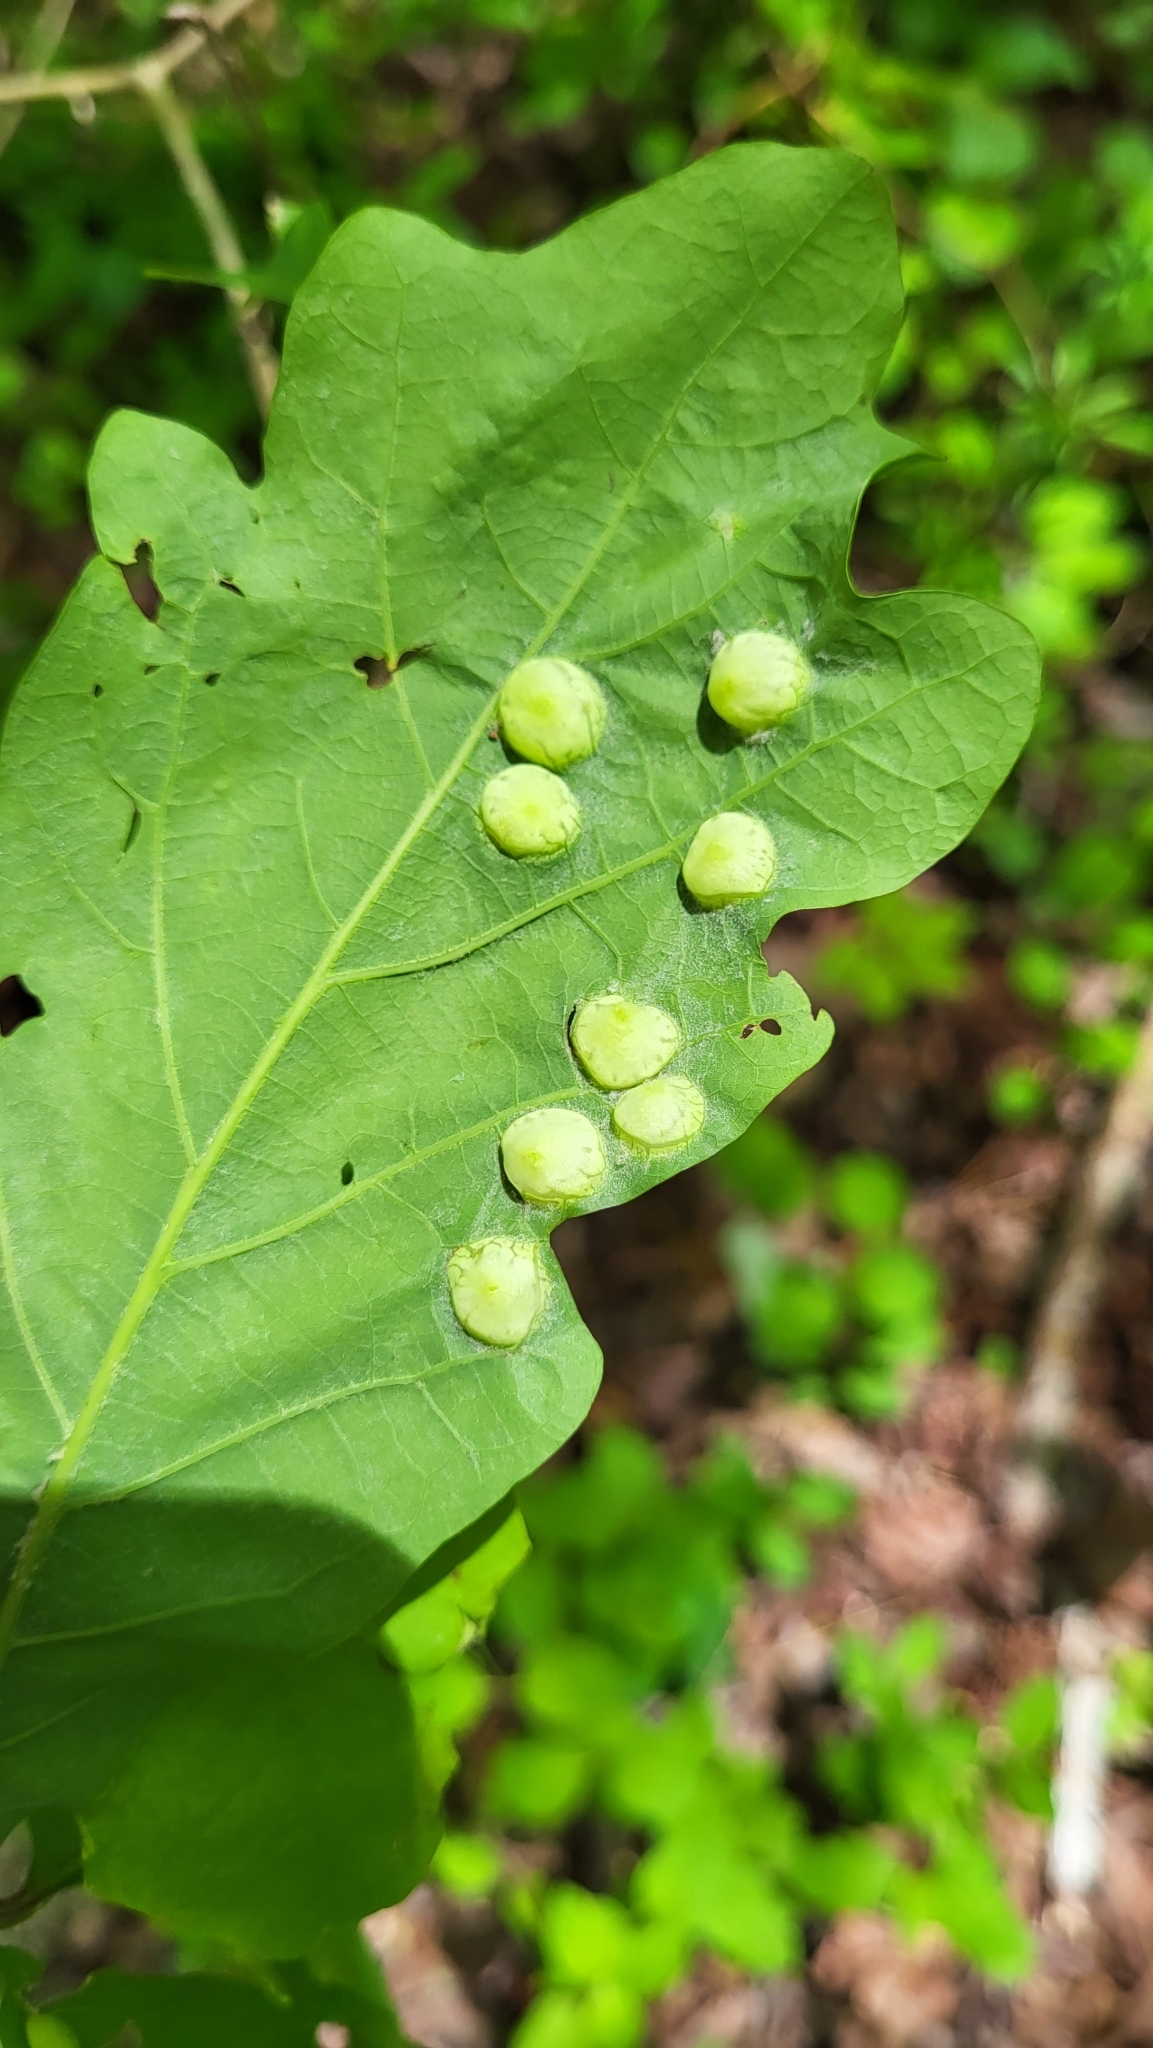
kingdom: Animalia
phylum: Arthropoda
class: Insecta
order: Hymenoptera
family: Cynipidae
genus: Callirhytis
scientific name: Callirhytis
